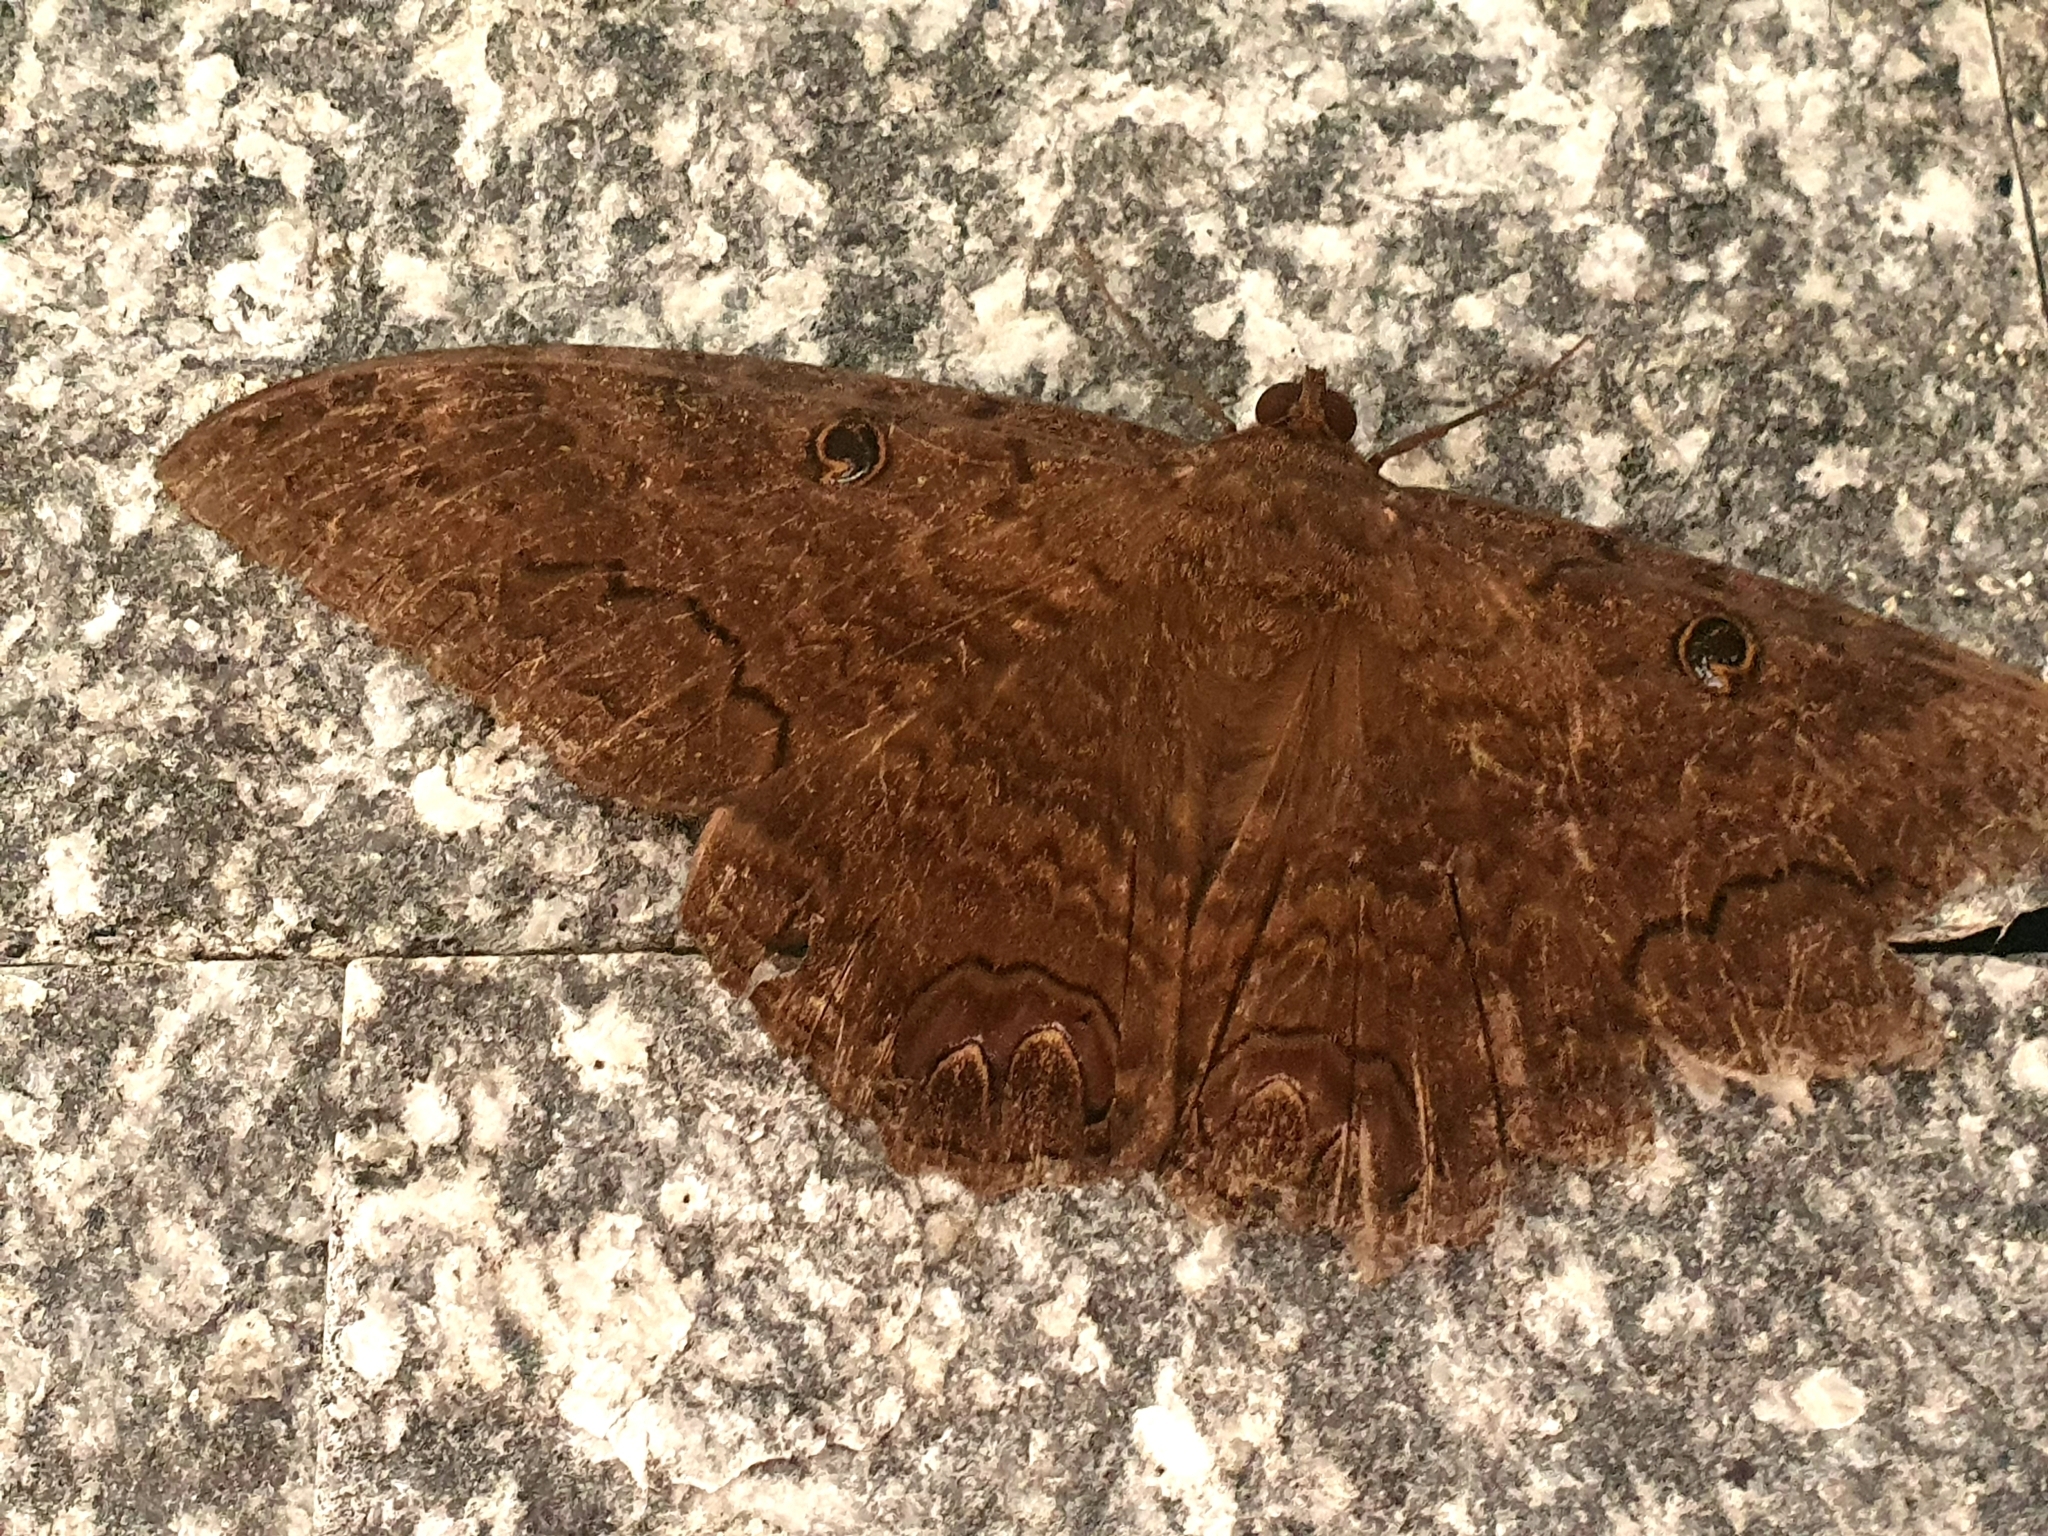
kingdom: Animalia
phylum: Arthropoda
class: Insecta
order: Lepidoptera
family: Erebidae
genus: Ascalapha
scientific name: Ascalapha odorata
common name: Black witch
